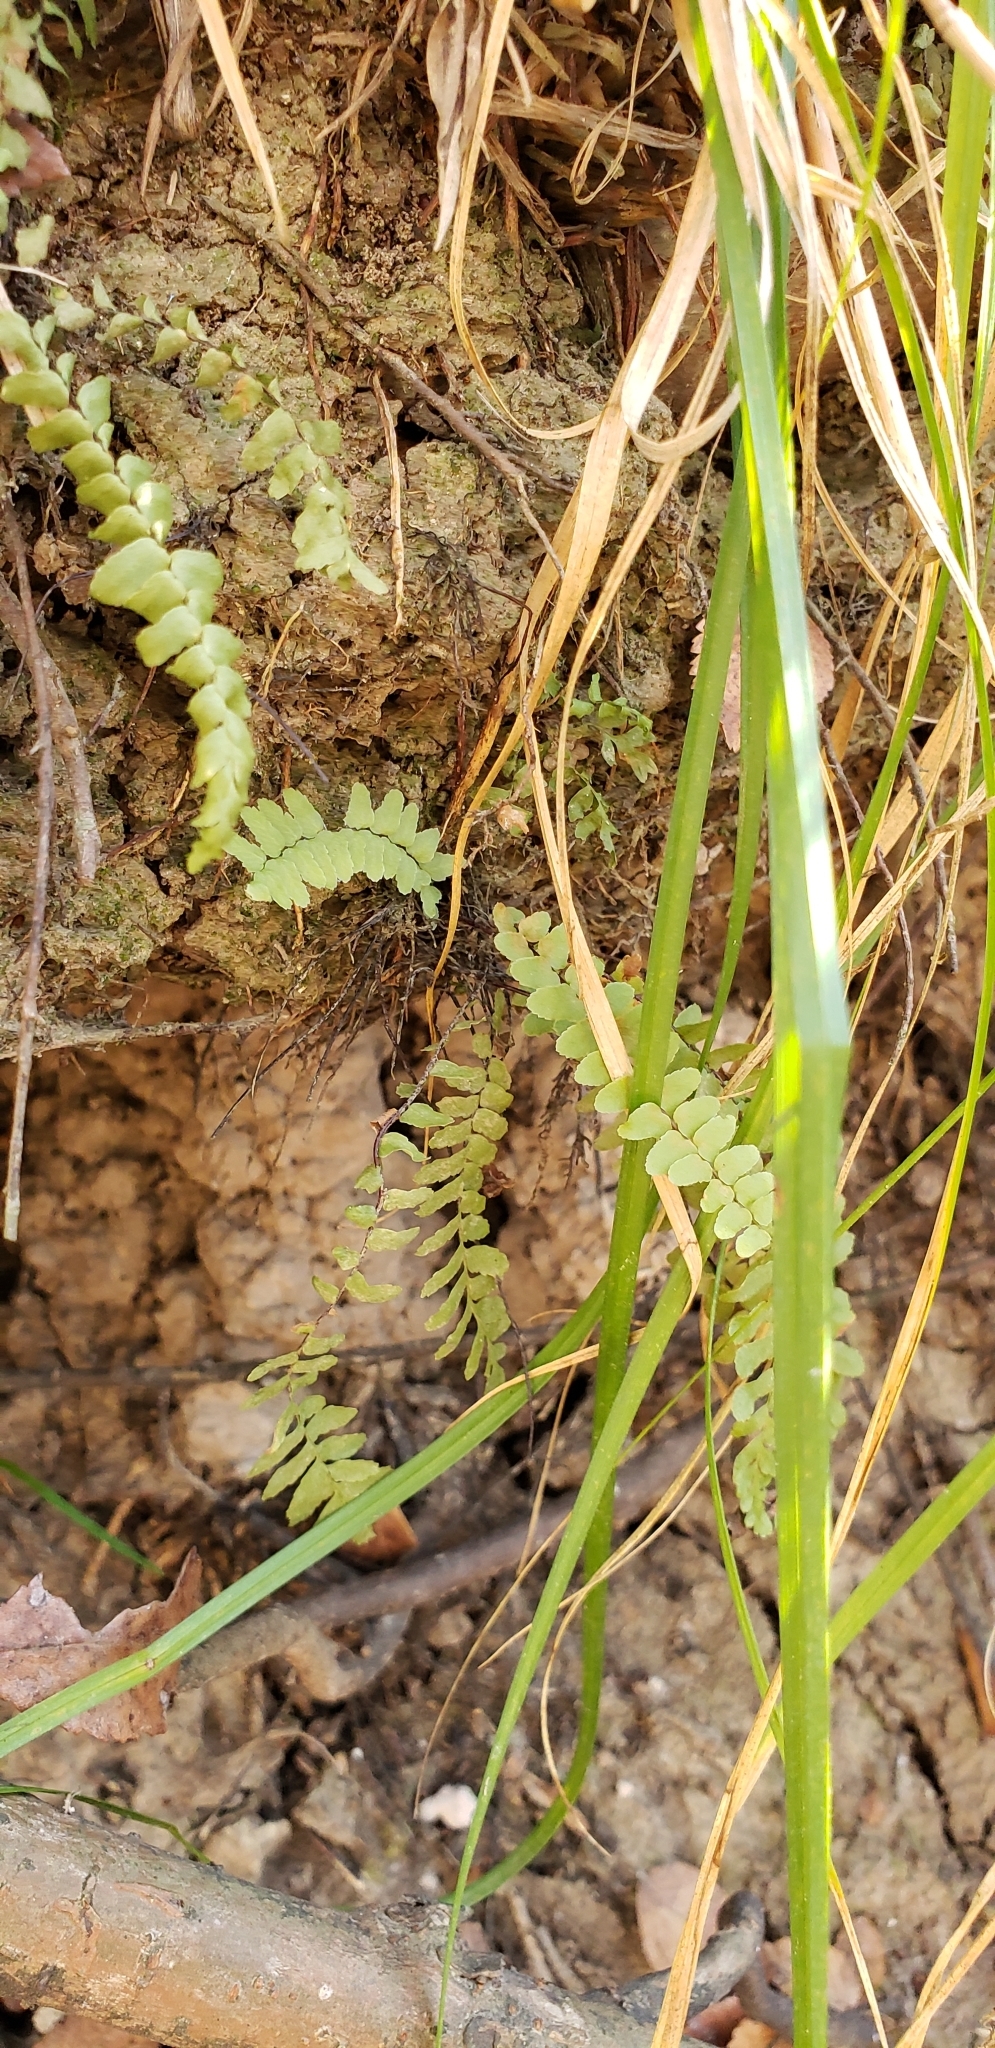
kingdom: Plantae
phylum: Tracheophyta
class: Polypodiopsida
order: Polypodiales
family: Aspleniaceae
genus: Asplenium
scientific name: Asplenium platyneuron
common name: Ebony spleenwort
